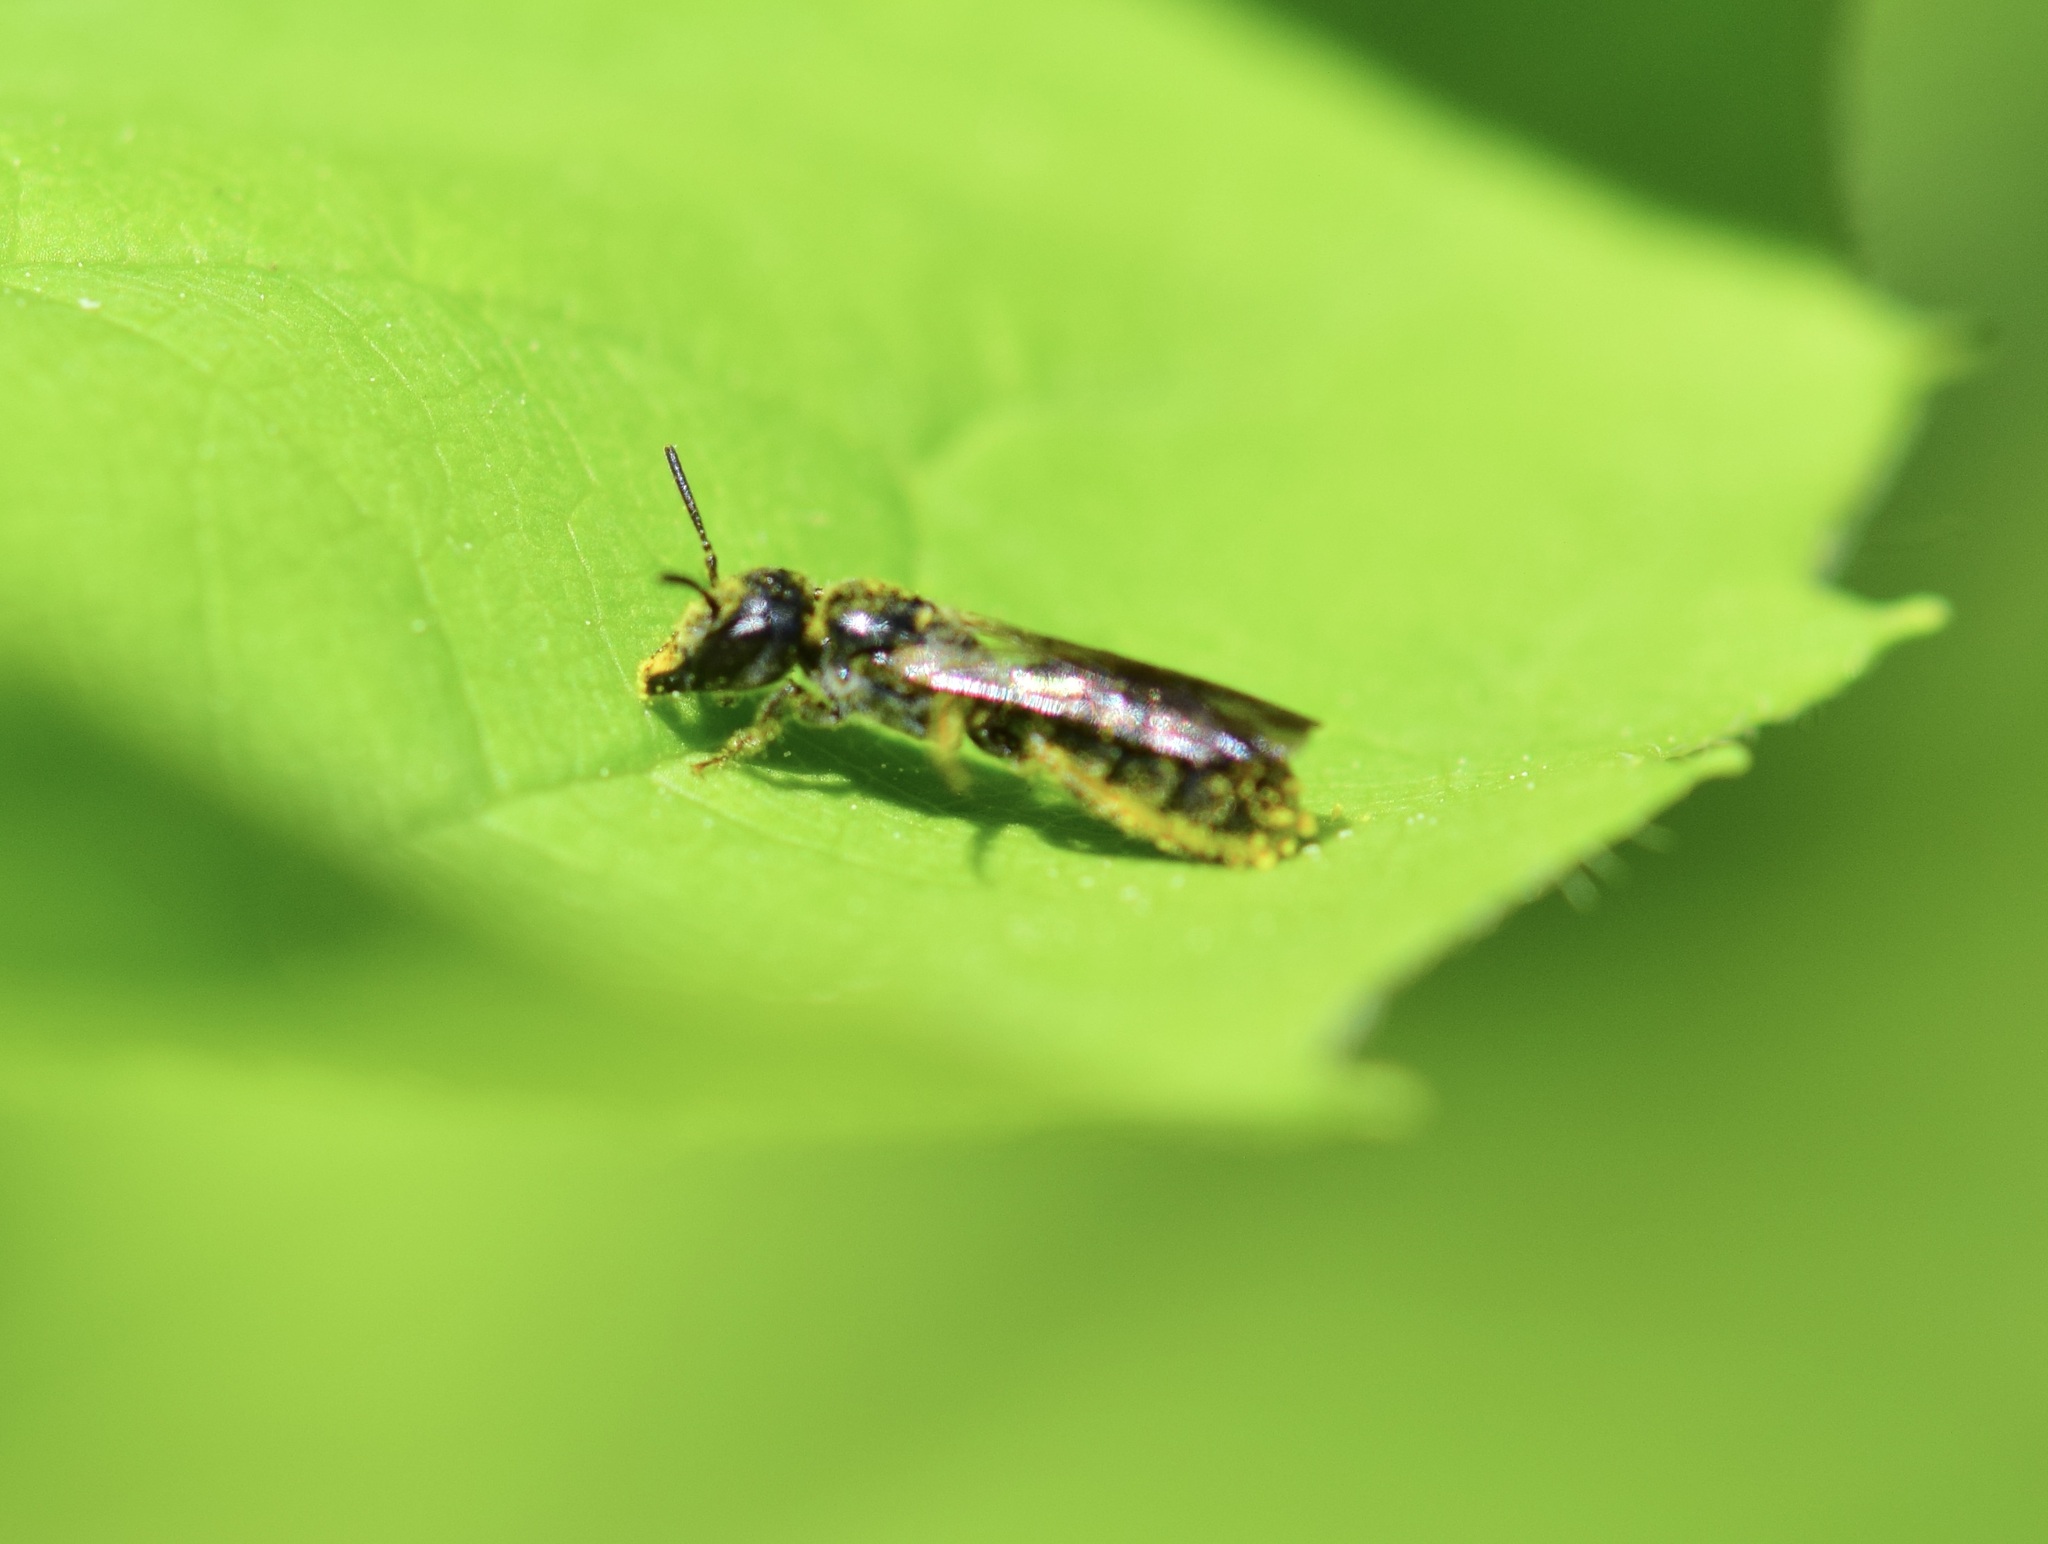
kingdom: Animalia
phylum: Arthropoda
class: Insecta
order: Hymenoptera
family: Megachilidae
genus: Chelostoma
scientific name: Chelostoma philadelphi
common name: Mock-orange scissor bee
